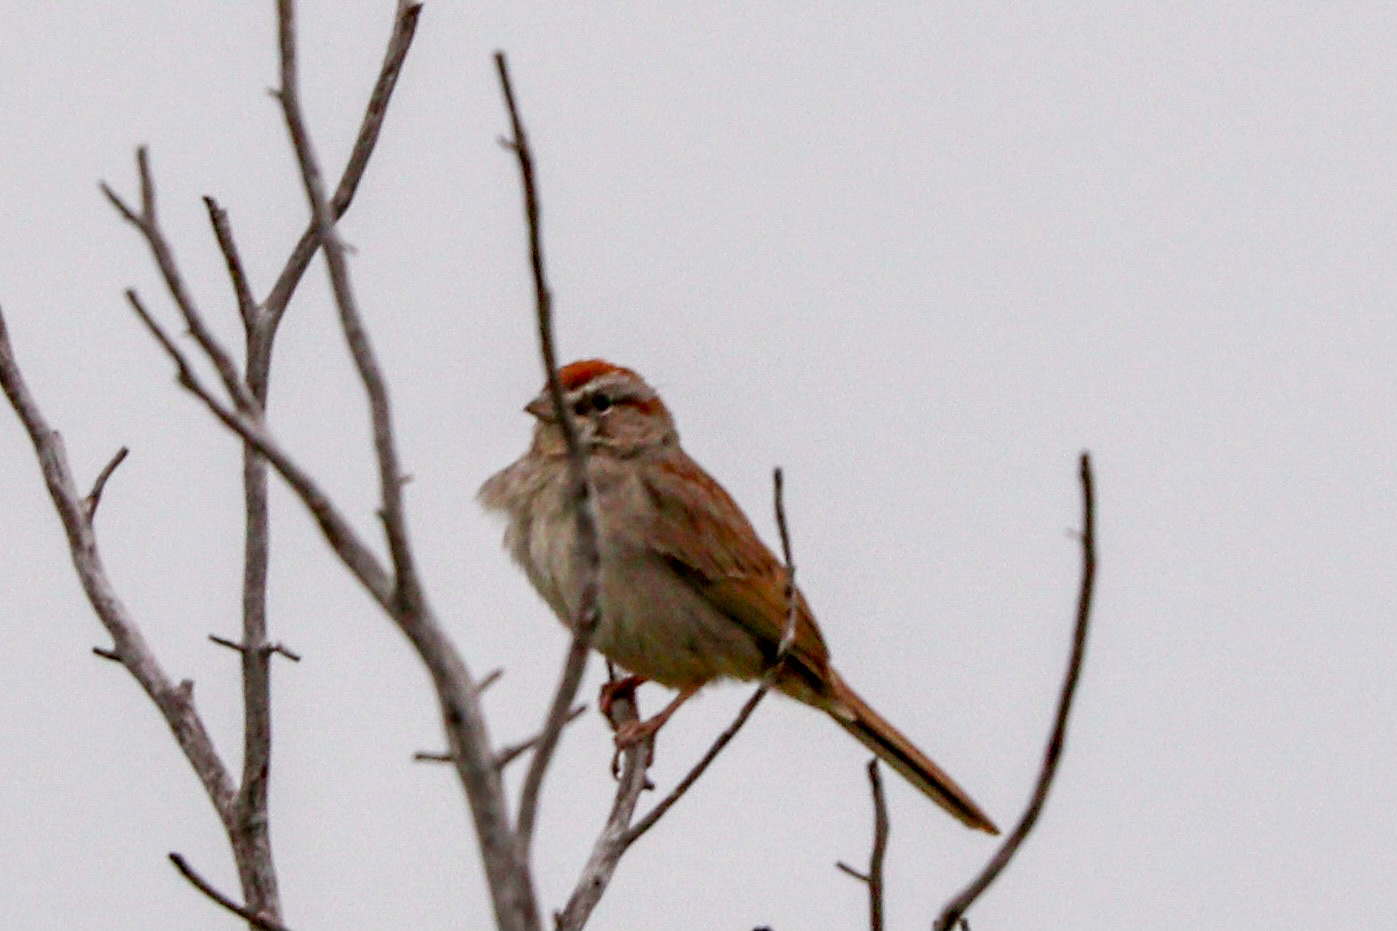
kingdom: Animalia
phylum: Chordata
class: Aves
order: Passeriformes
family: Passerellidae
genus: Aimophila
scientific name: Aimophila ruficeps
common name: Rufous-crowned sparrow
